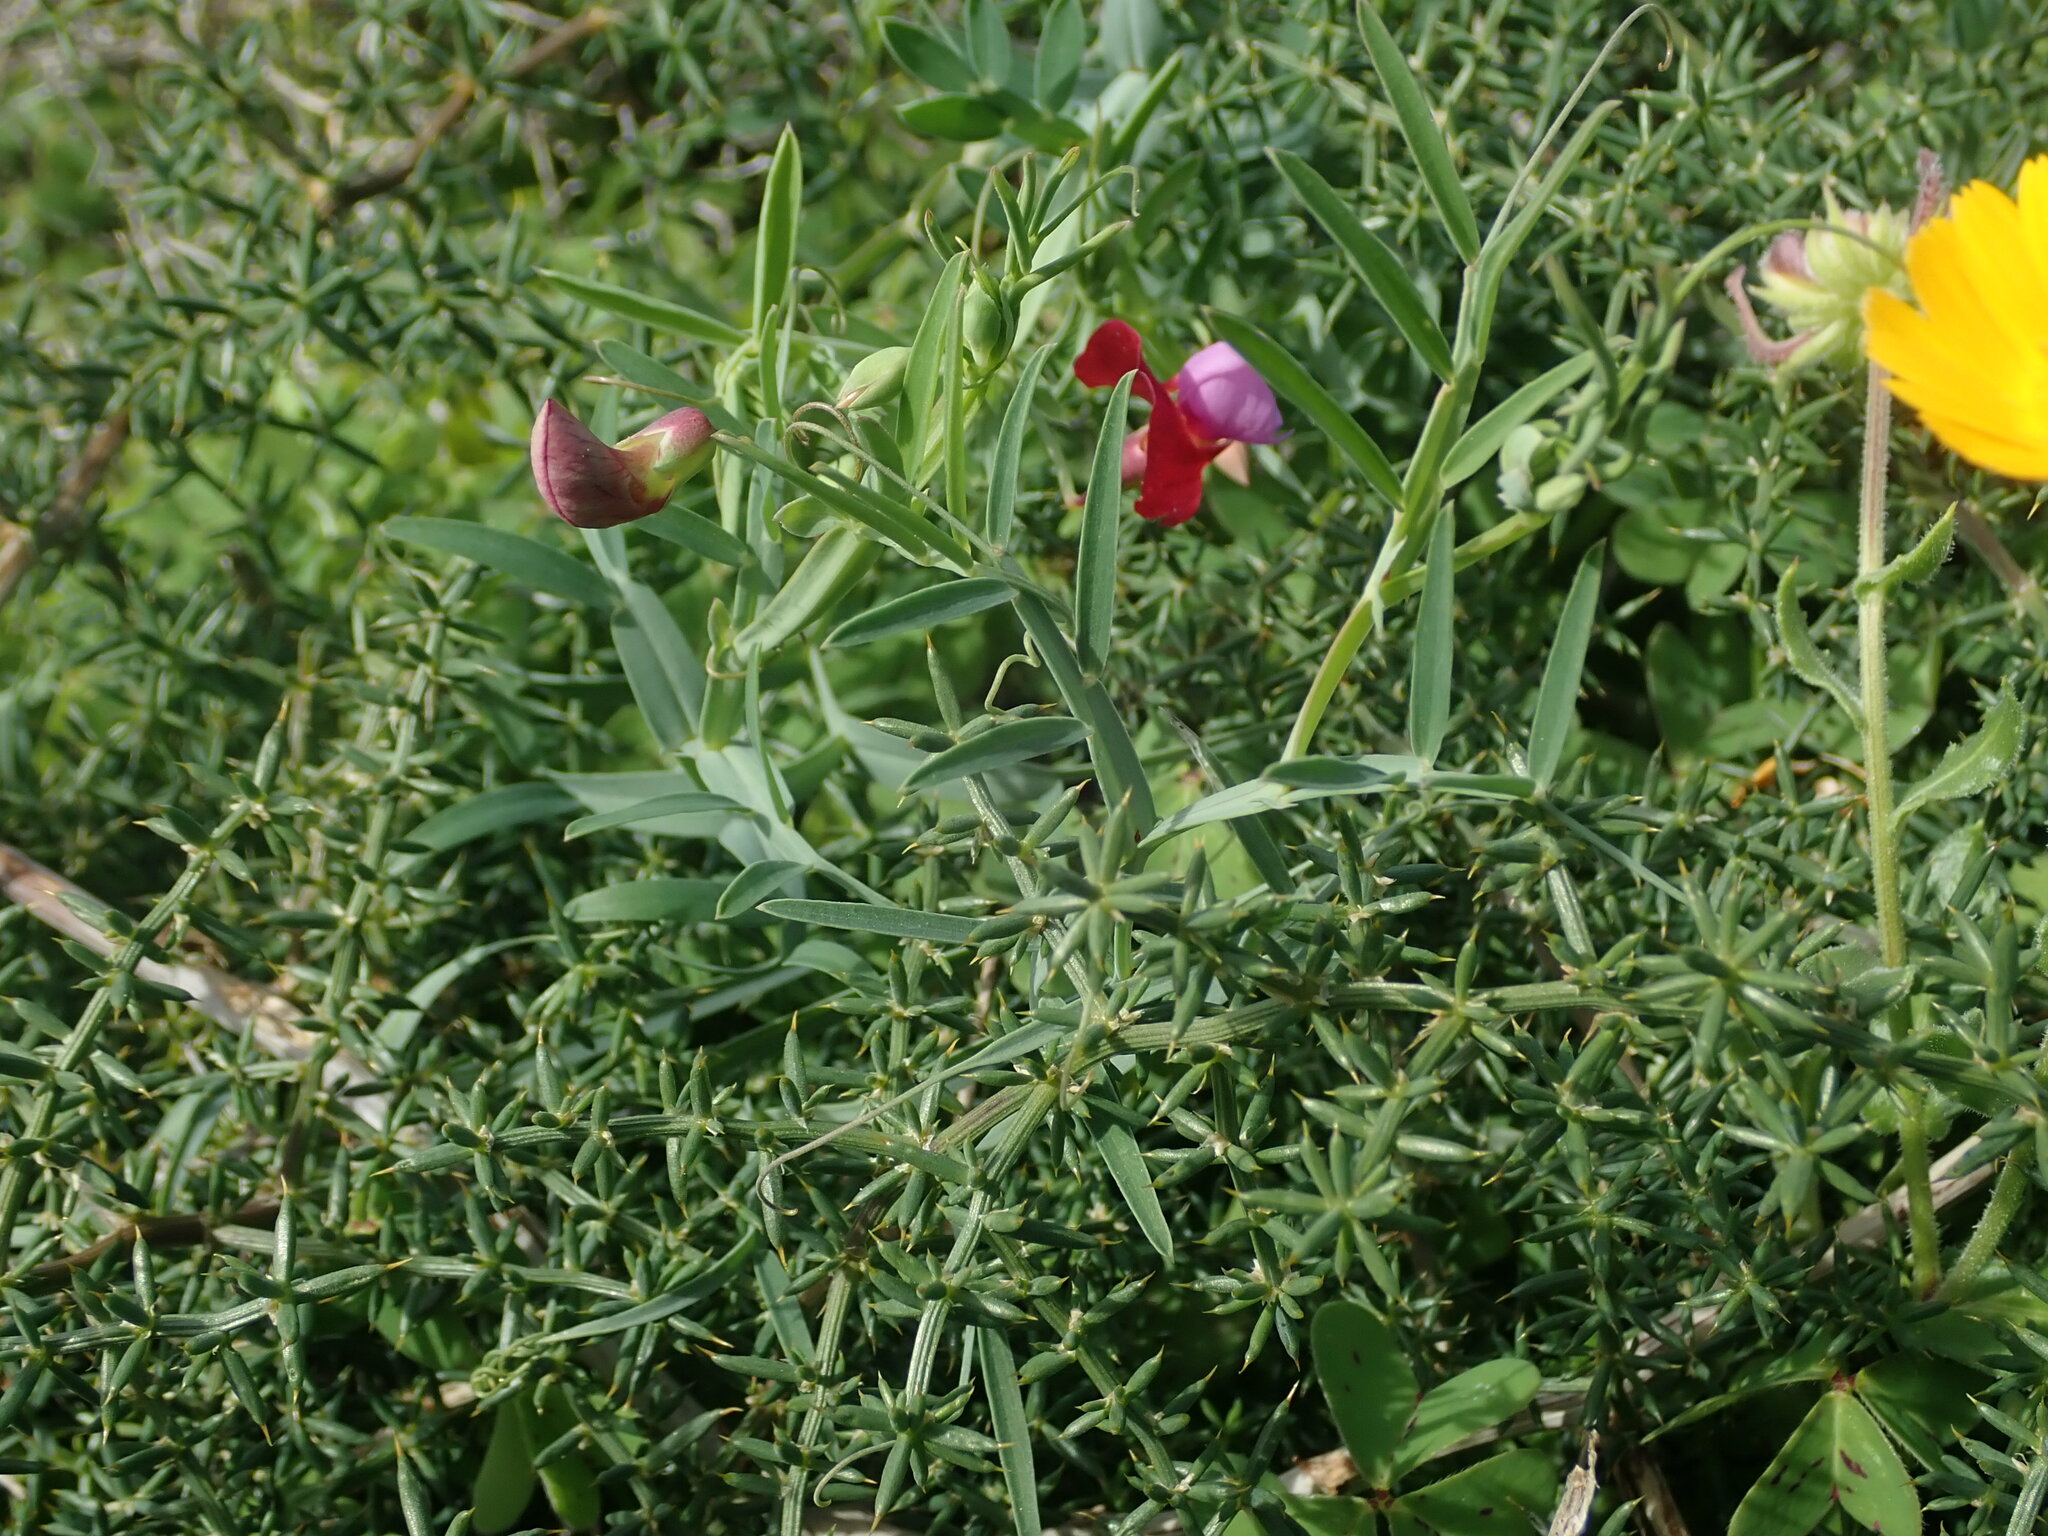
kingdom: Plantae
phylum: Tracheophyta
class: Magnoliopsida
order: Fabales
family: Fabaceae
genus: Lathyrus
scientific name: Lathyrus clymenum
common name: Spanish vetchling
